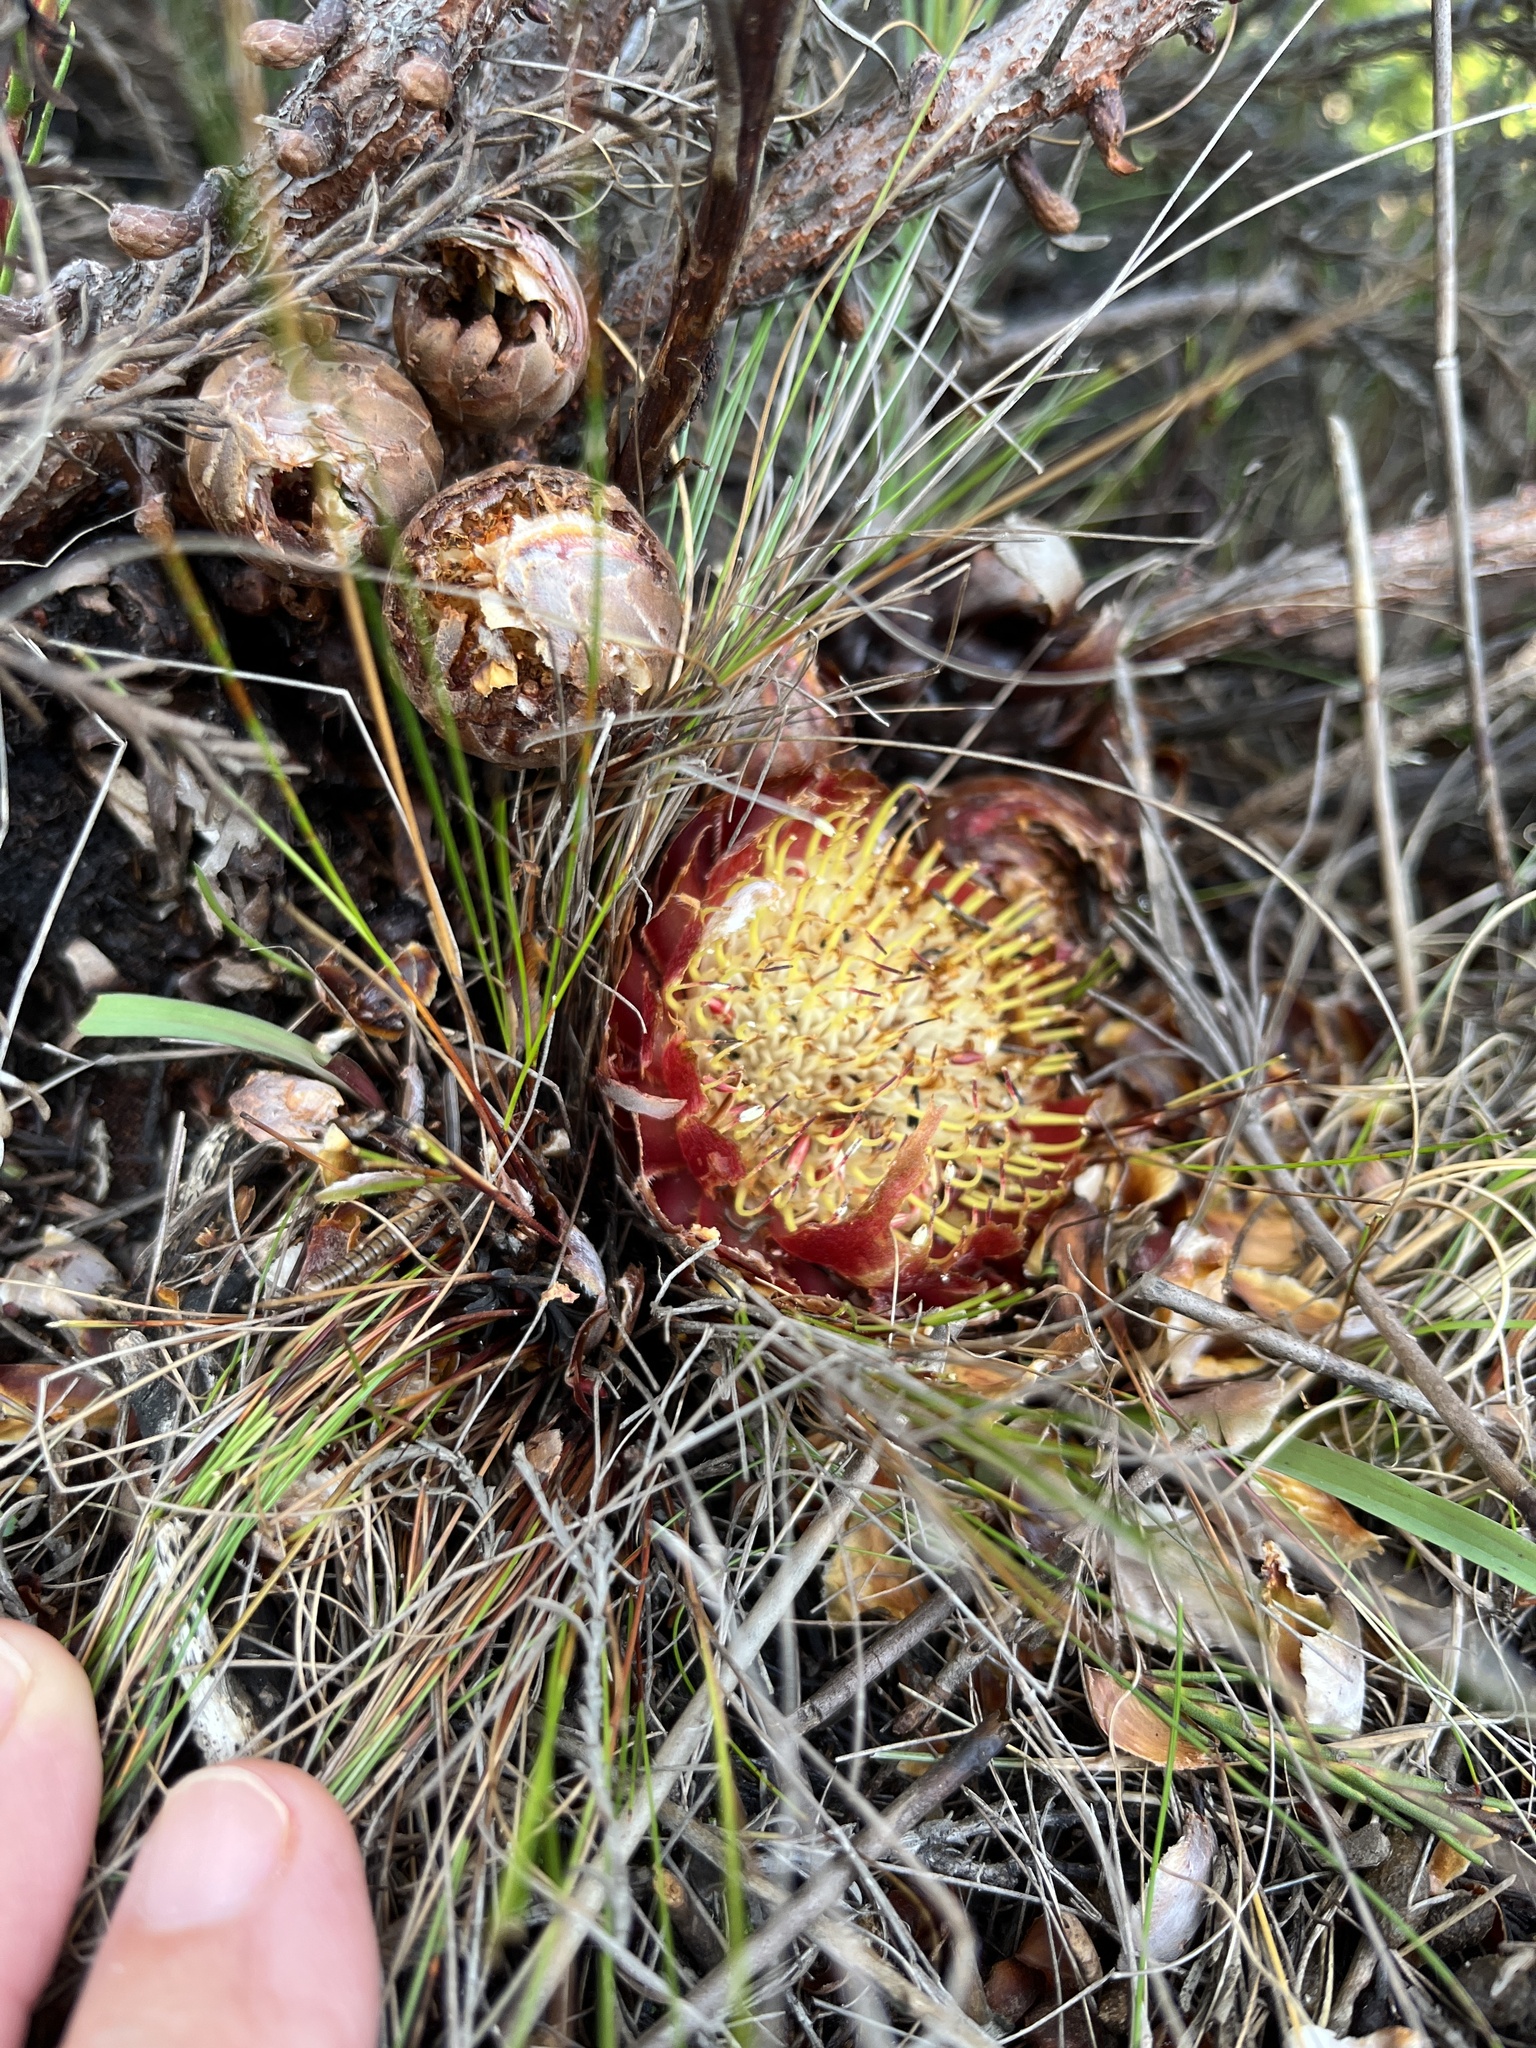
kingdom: Plantae
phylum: Tracheophyta
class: Magnoliopsida
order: Proteales
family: Proteaceae
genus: Protea
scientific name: Protea subulifolia
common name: Awl-leaf sugarbush
